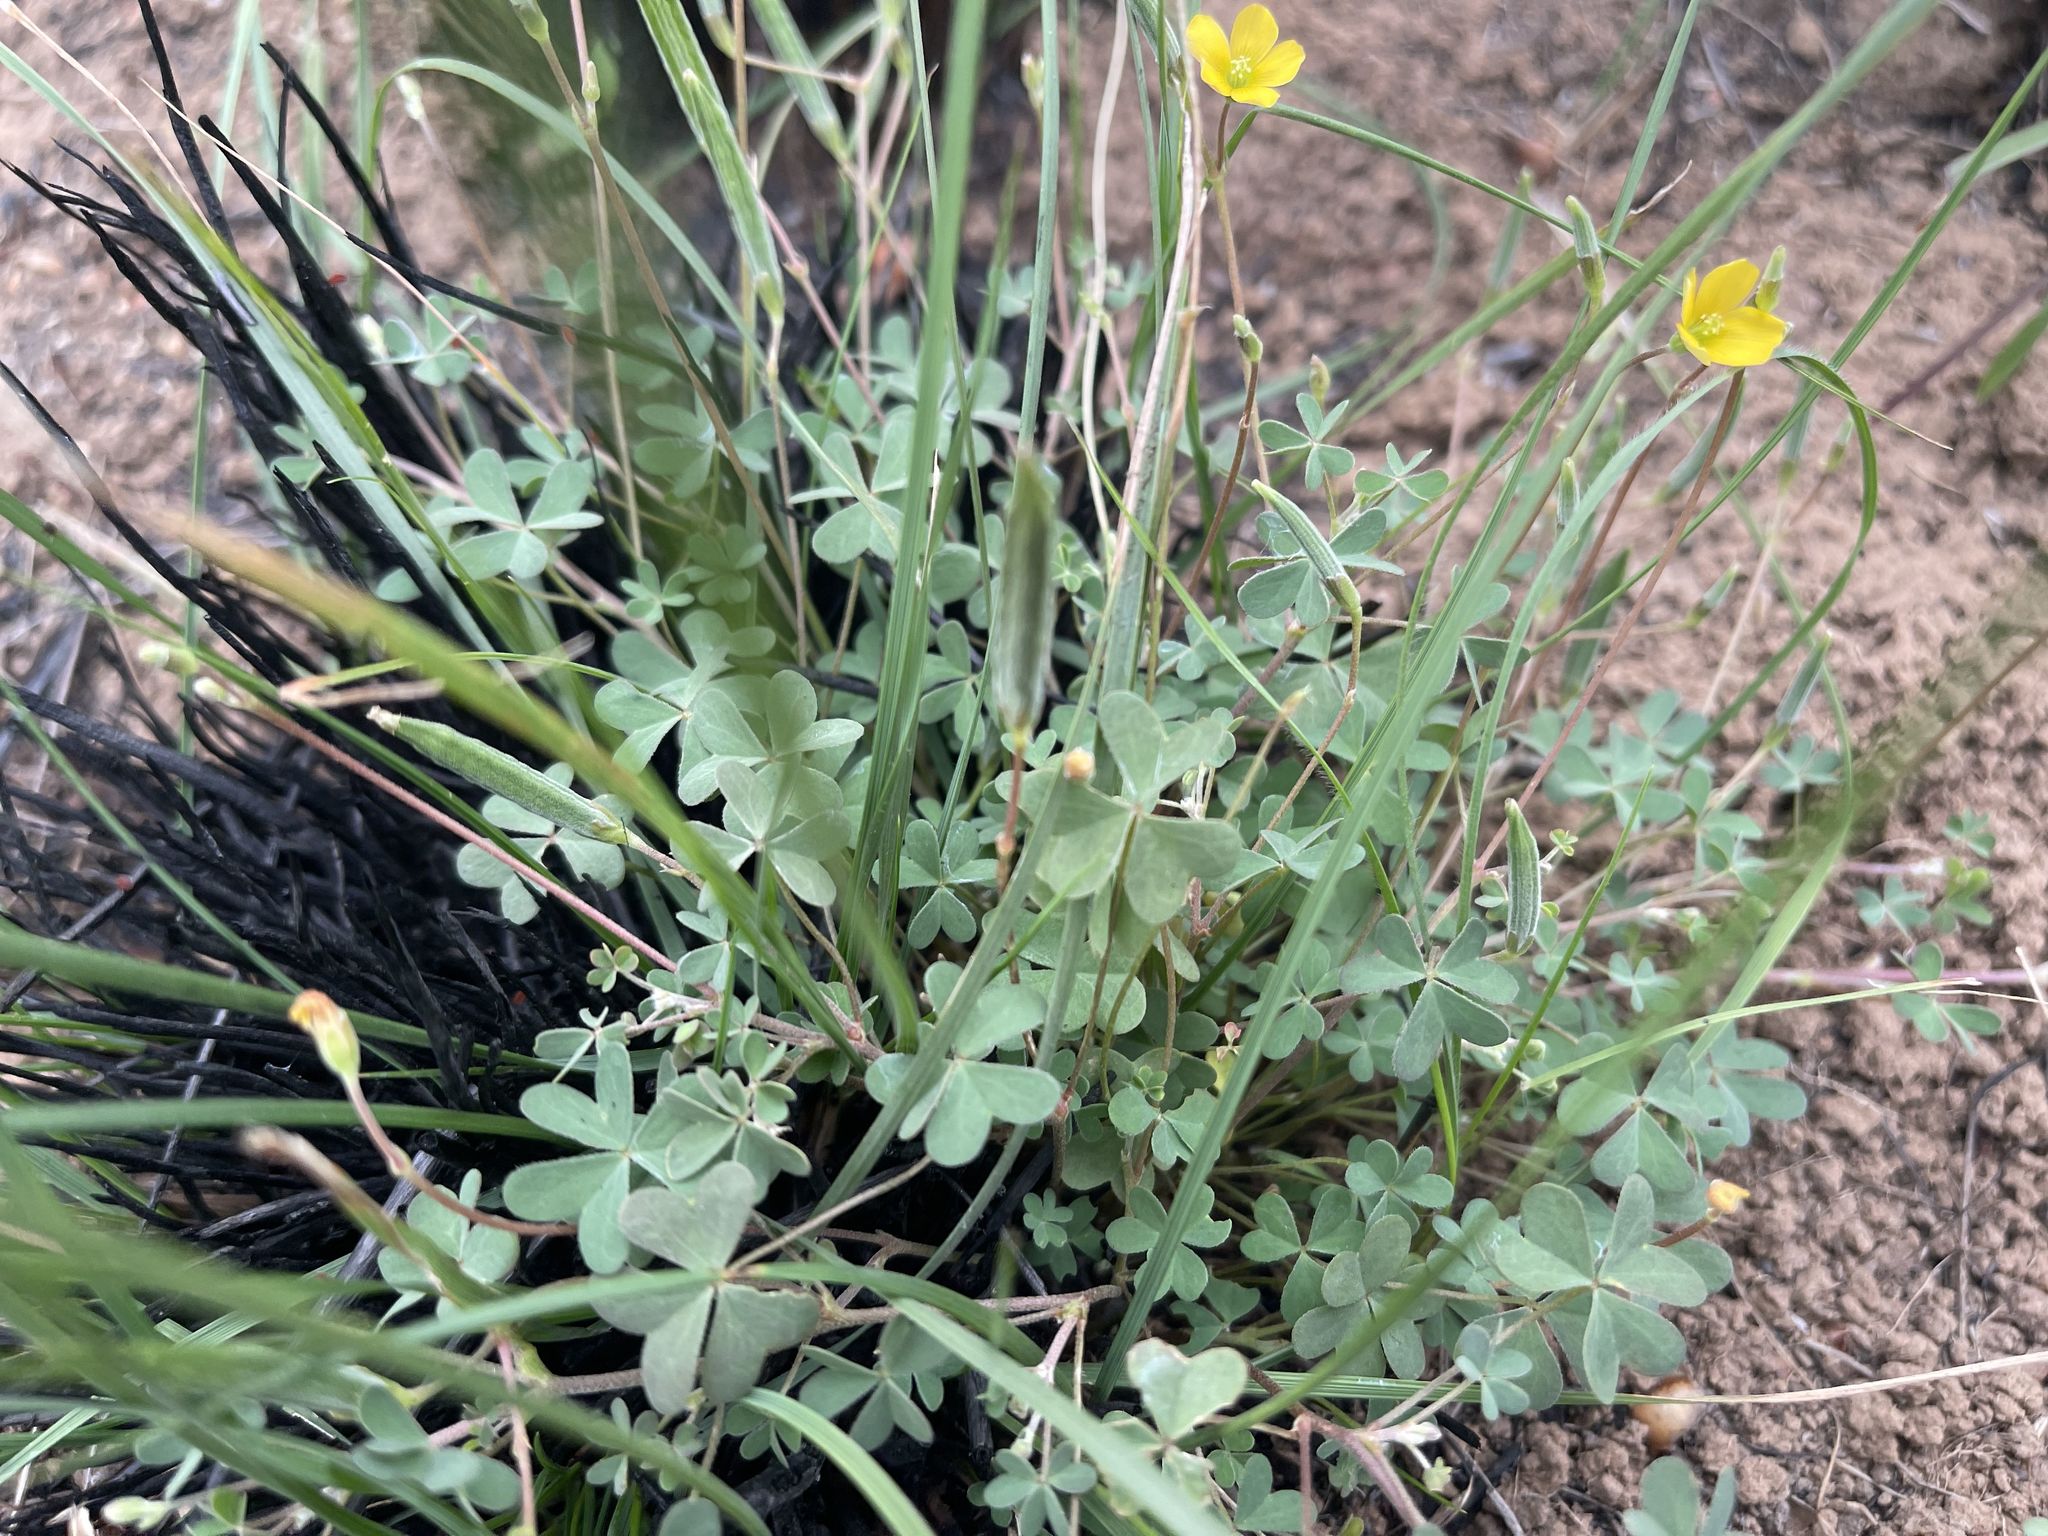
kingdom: Plantae
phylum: Tracheophyta
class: Magnoliopsida
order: Oxalidales
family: Oxalidaceae
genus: Oxalis
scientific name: Oxalis perennans
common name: Woody-rooted yellow-sorrel
